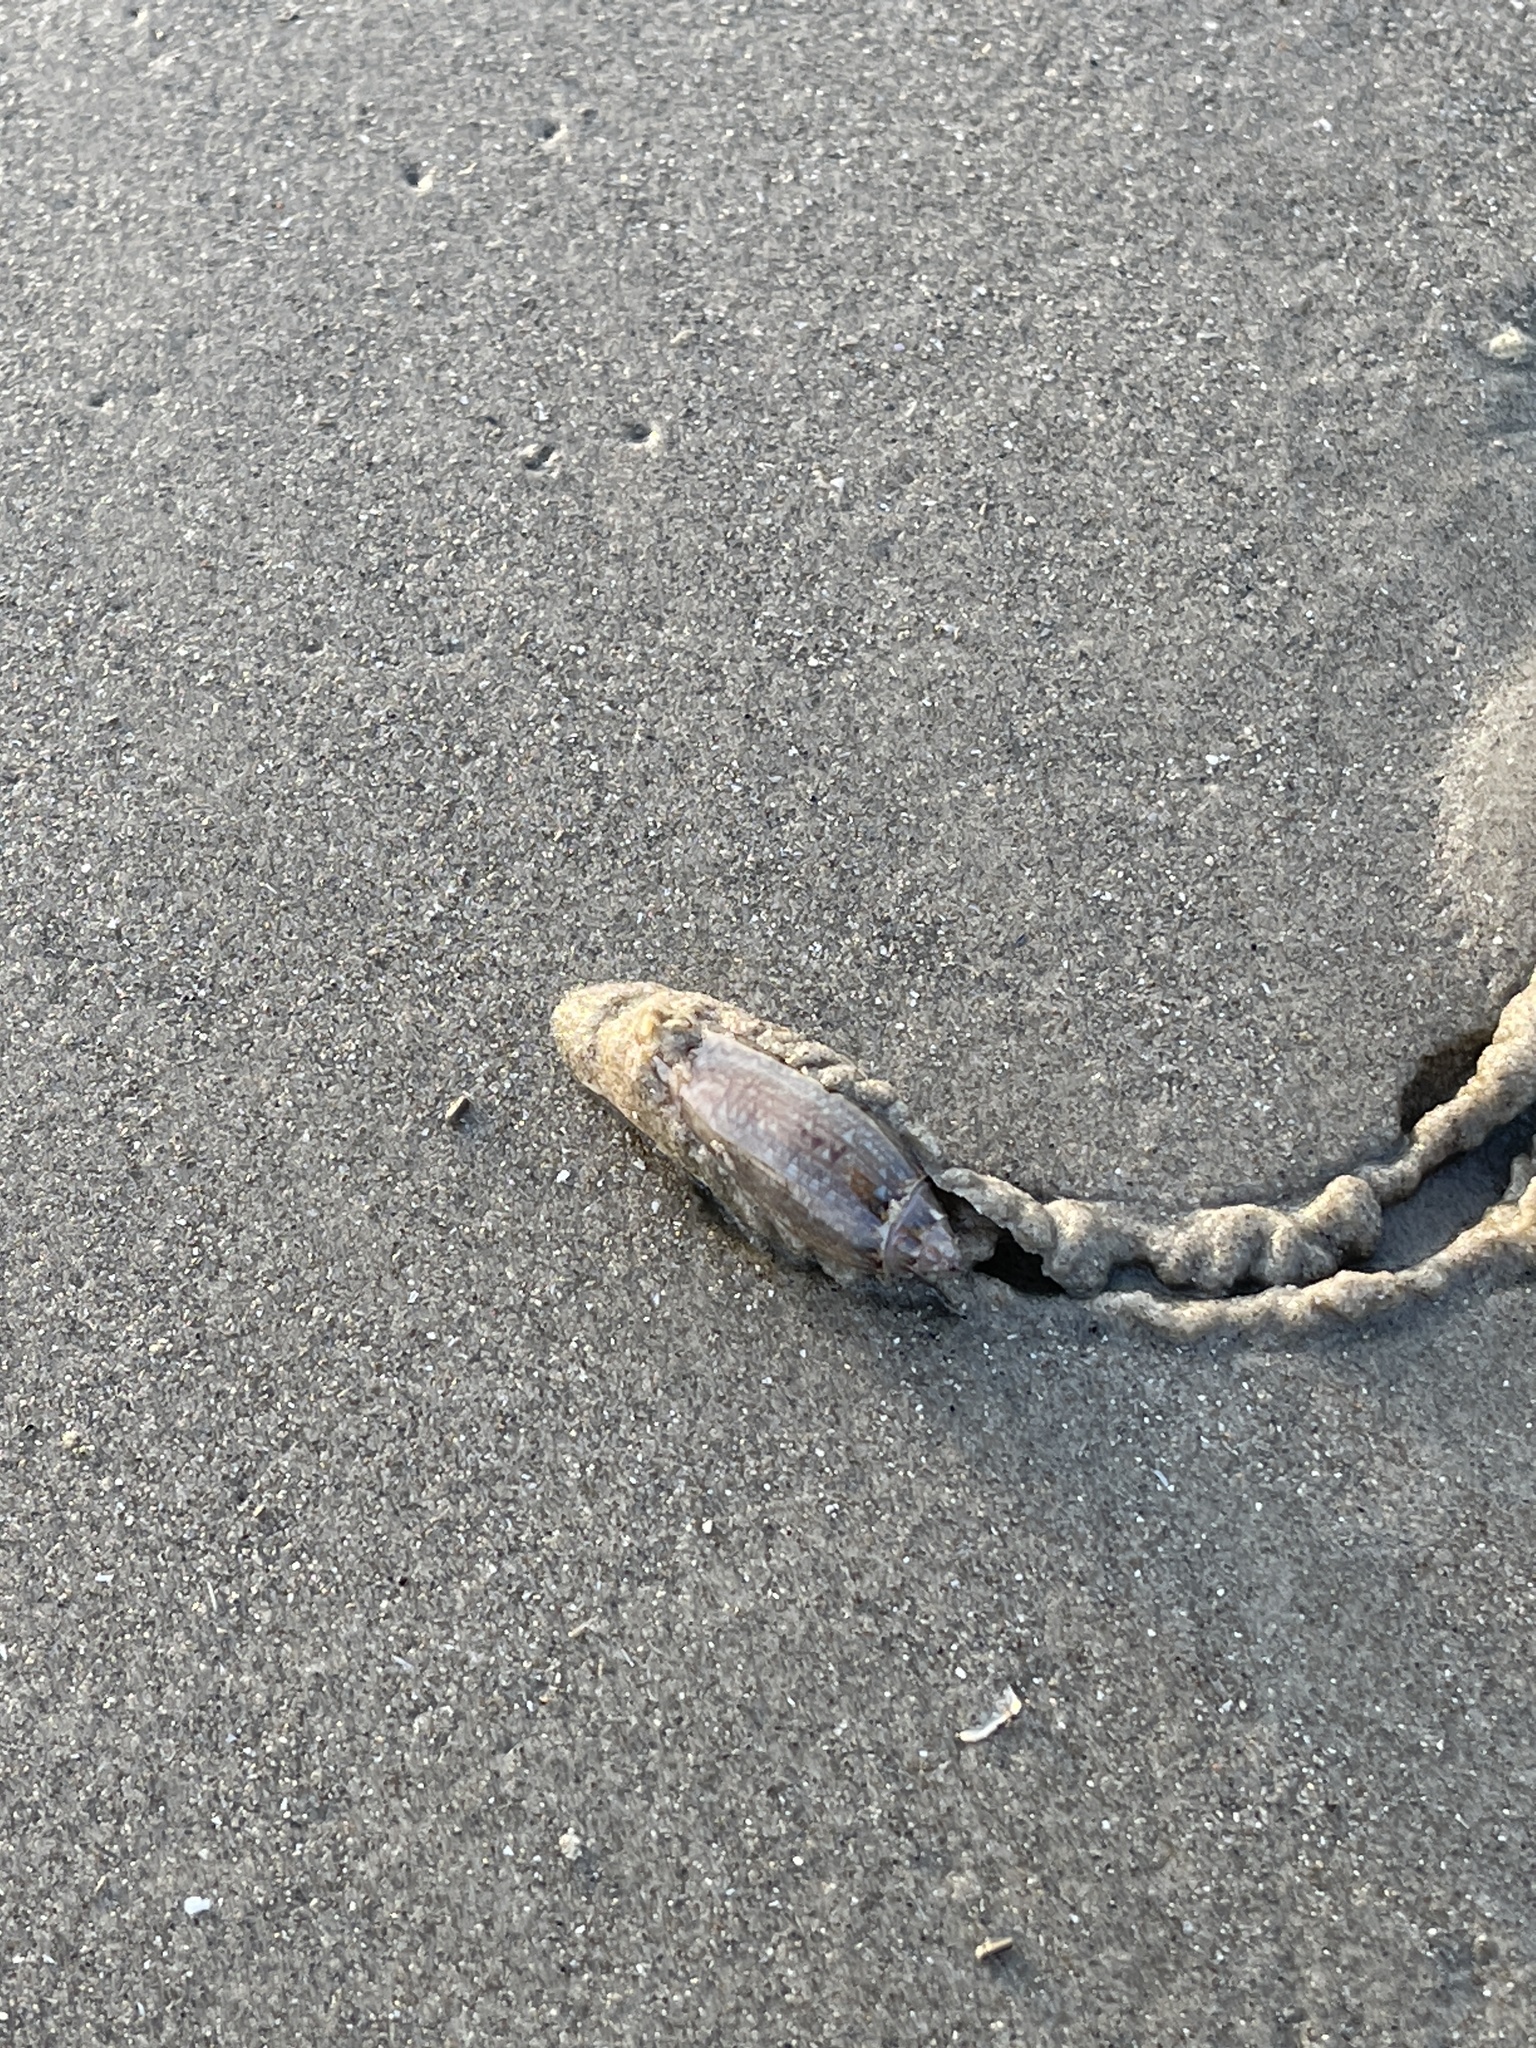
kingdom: Animalia
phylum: Mollusca
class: Gastropoda
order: Neogastropoda
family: Olividae
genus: Oliva
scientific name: Oliva sayana
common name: Lettered olive
